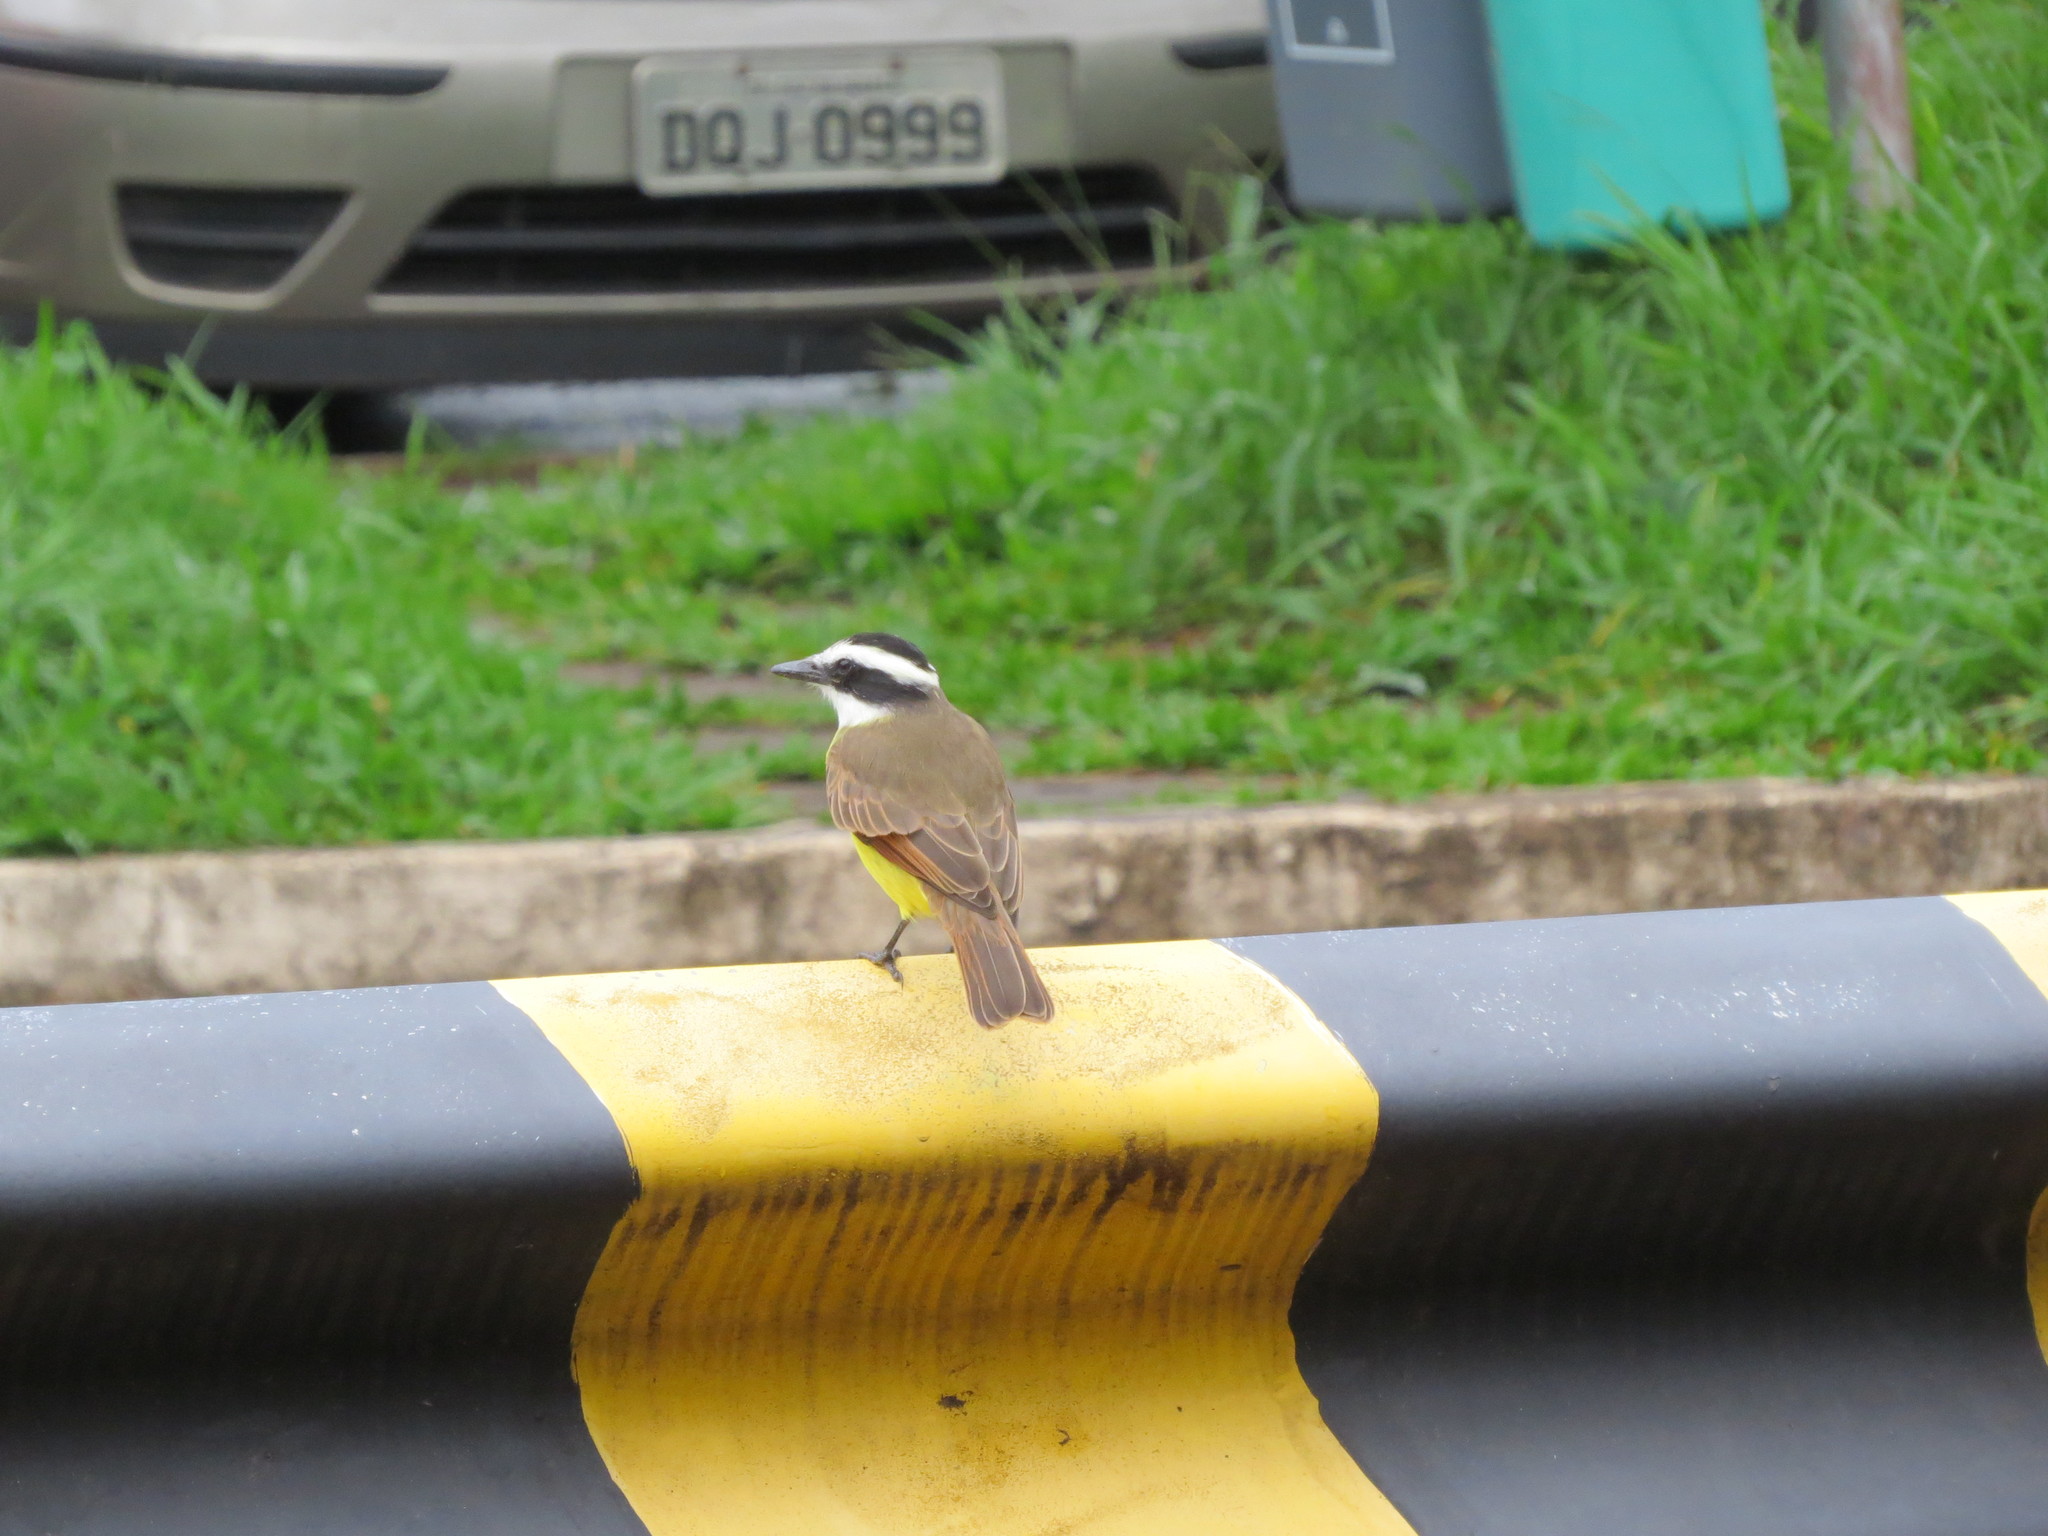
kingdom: Animalia
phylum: Chordata
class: Aves
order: Passeriformes
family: Tyrannidae
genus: Pitangus
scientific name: Pitangus sulphuratus
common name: Great kiskadee
